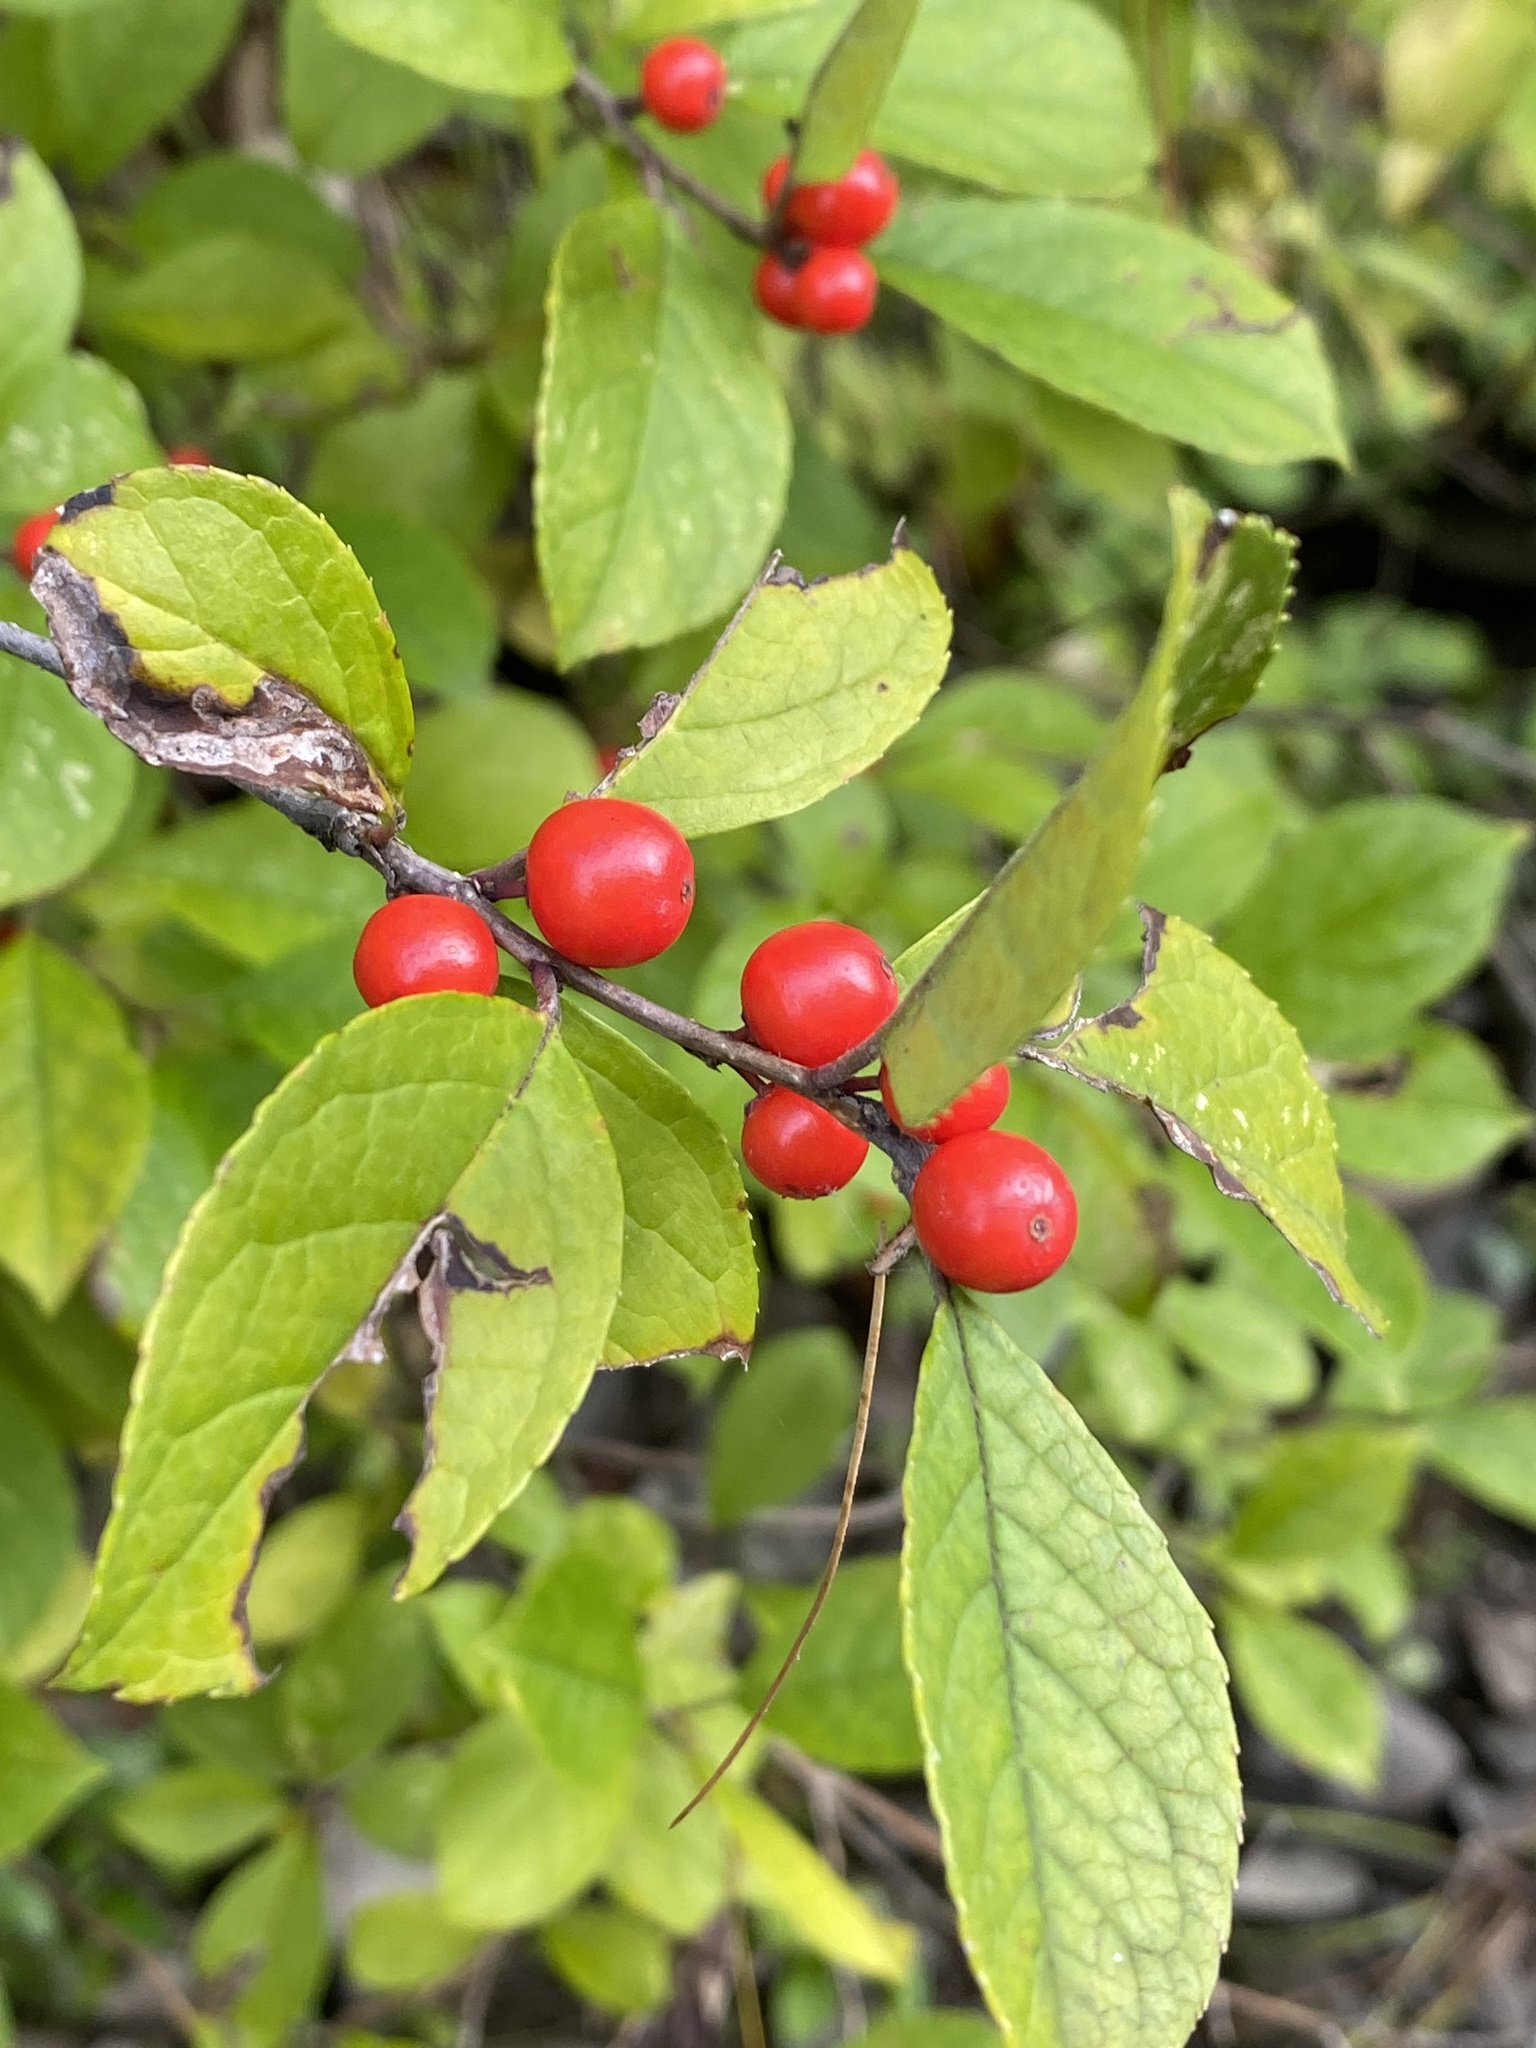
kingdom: Plantae
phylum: Tracheophyta
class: Magnoliopsida
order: Aquifoliales
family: Aquifoliaceae
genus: Ilex
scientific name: Ilex verticillata
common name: Virginia winterberry
